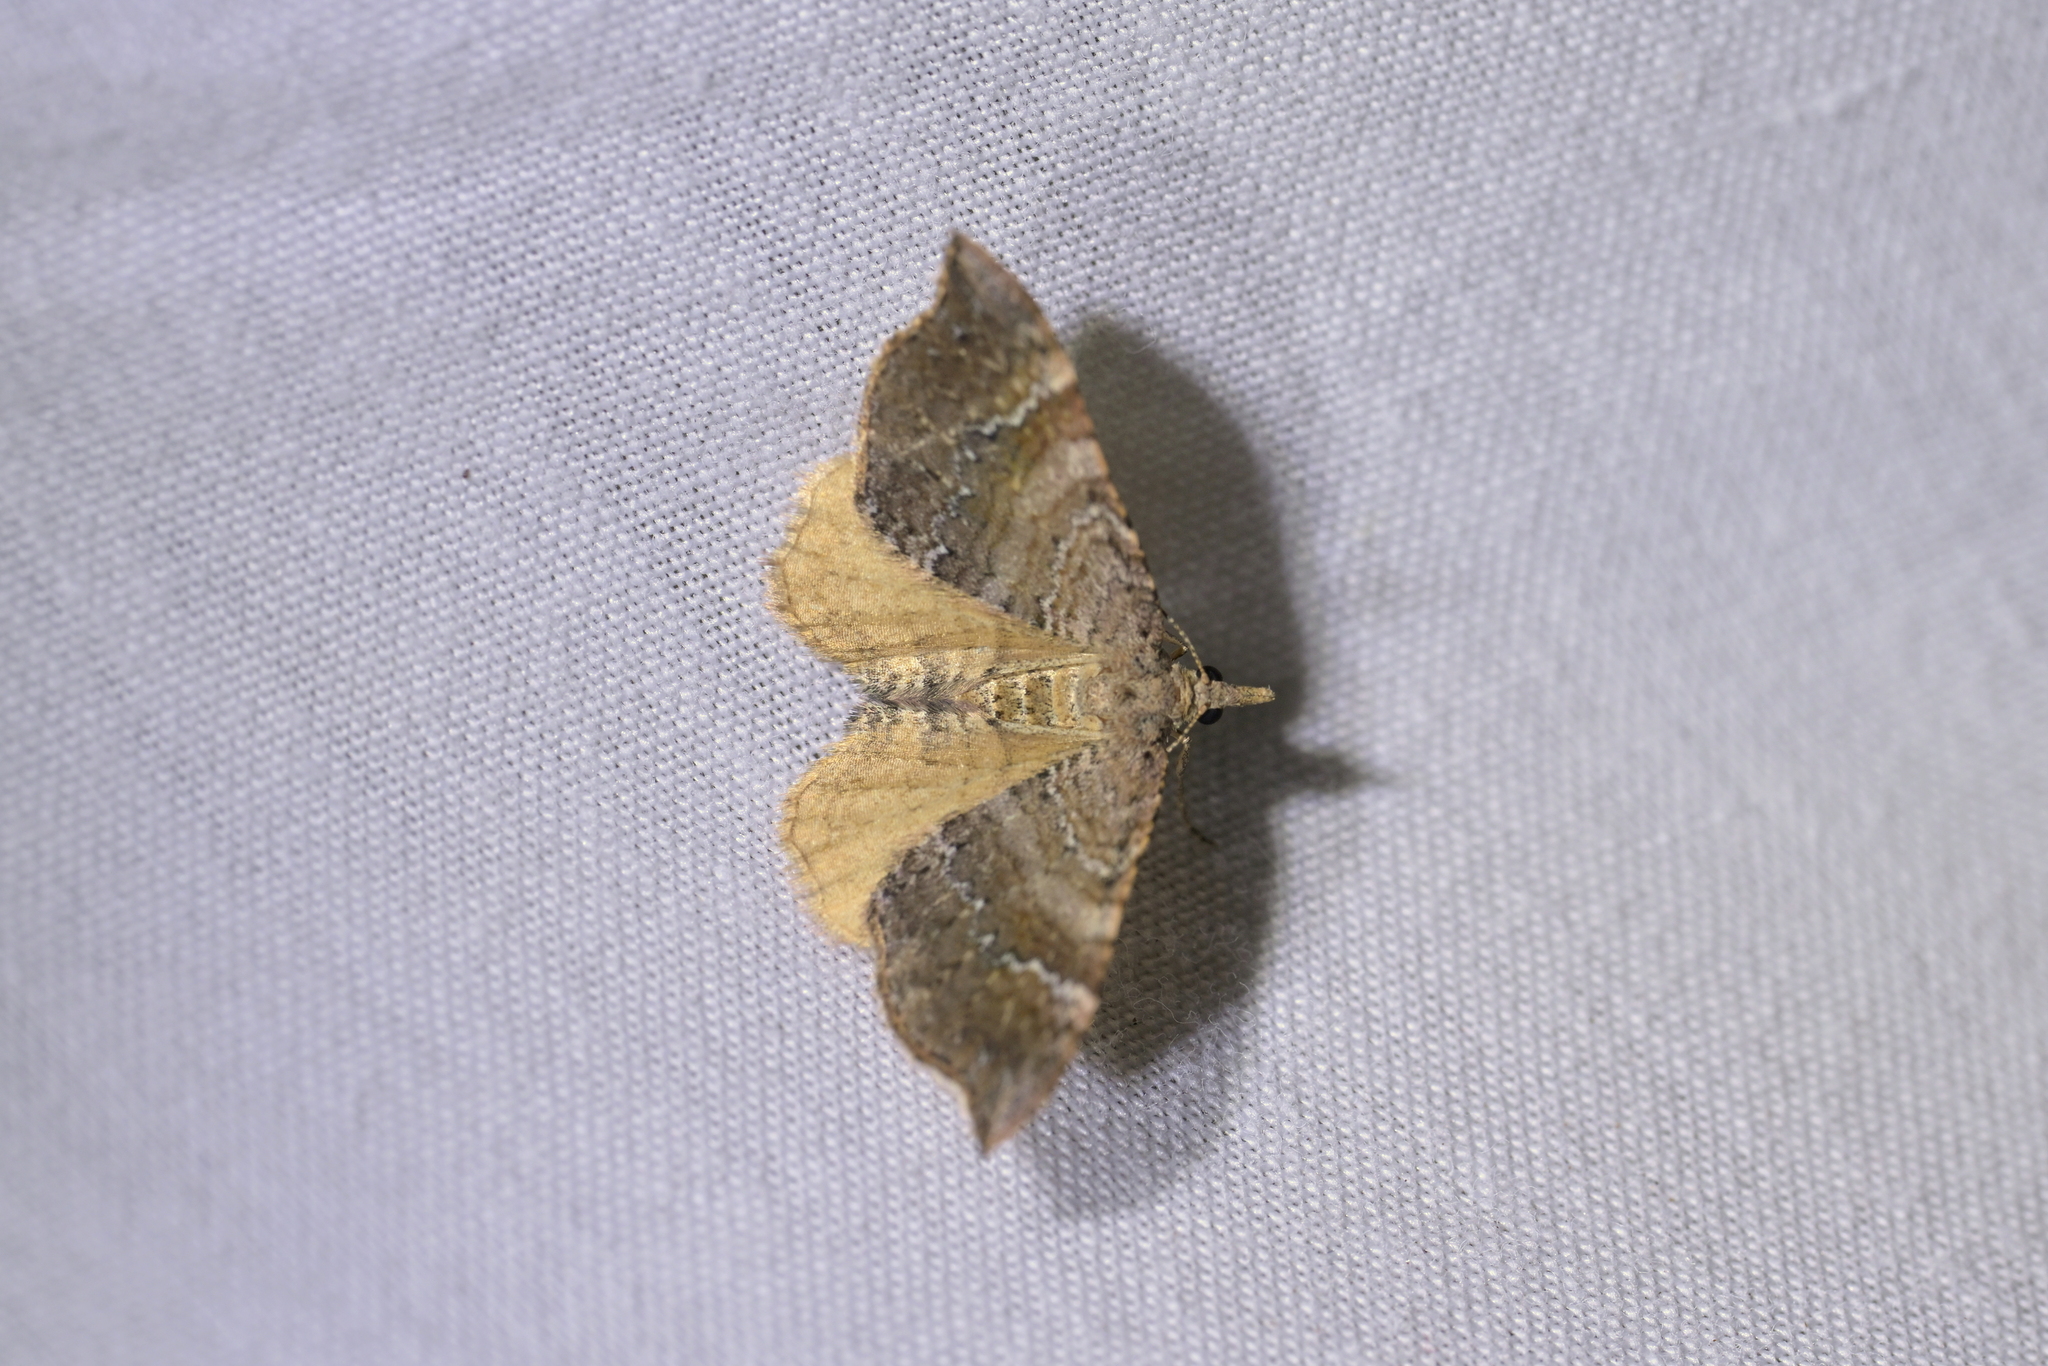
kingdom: Animalia
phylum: Arthropoda
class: Insecta
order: Lepidoptera
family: Geometridae
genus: Homodotis
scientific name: Homodotis megaspilata
